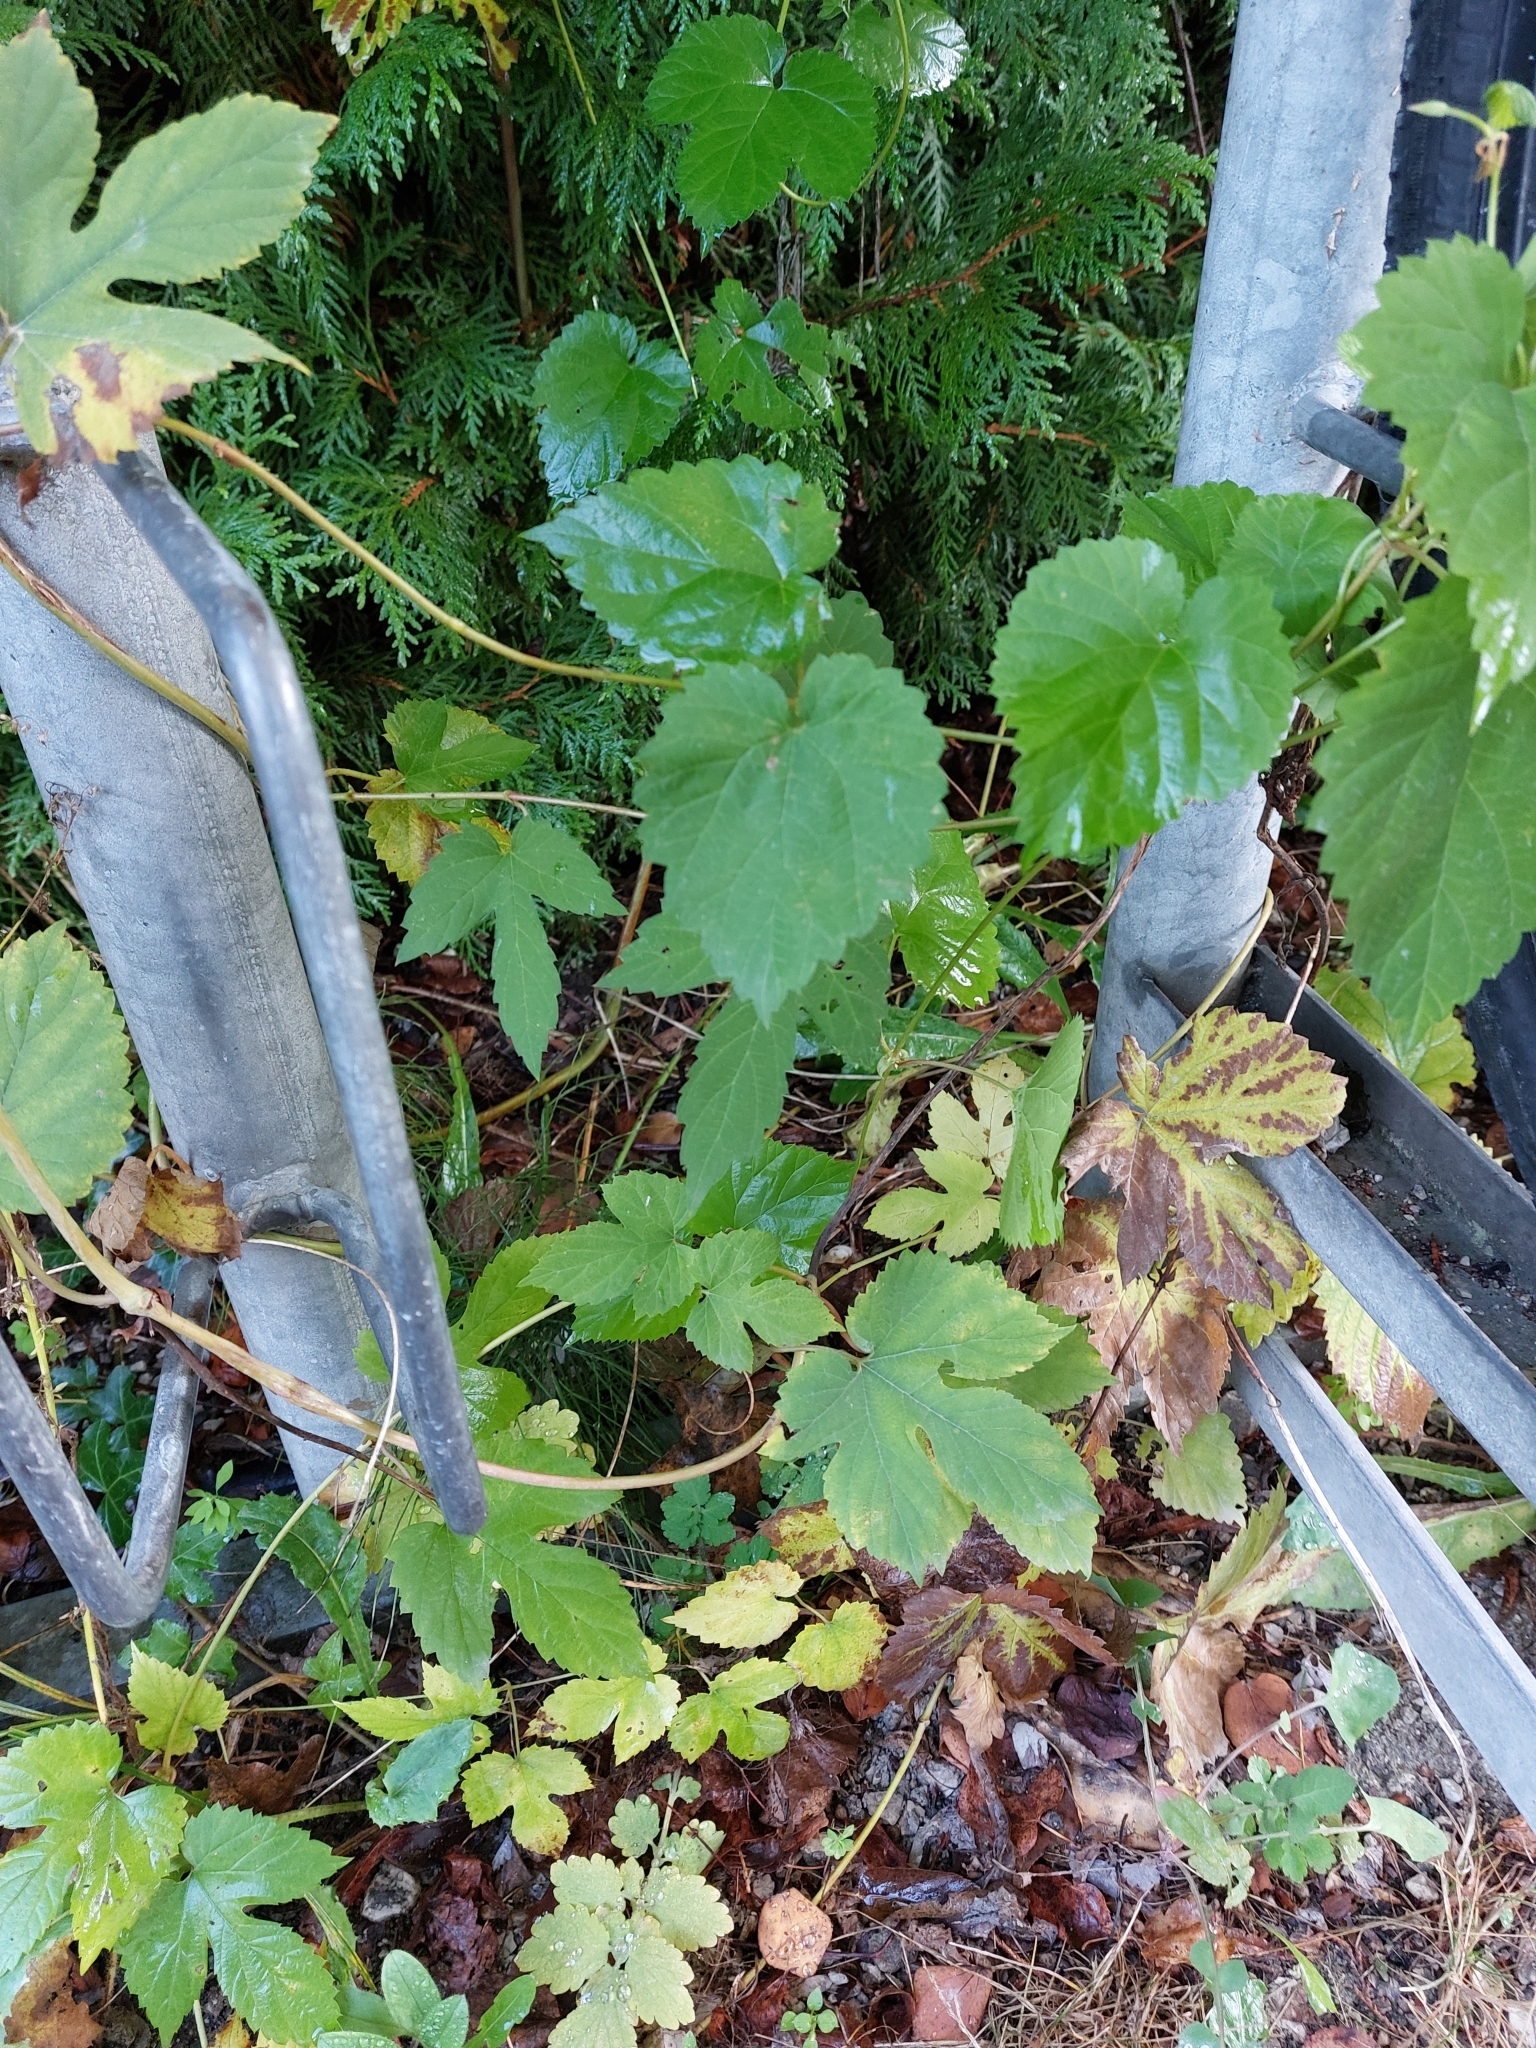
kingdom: Plantae
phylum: Tracheophyta
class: Magnoliopsida
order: Rosales
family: Cannabaceae
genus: Humulus
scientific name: Humulus lupulus
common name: Hop
